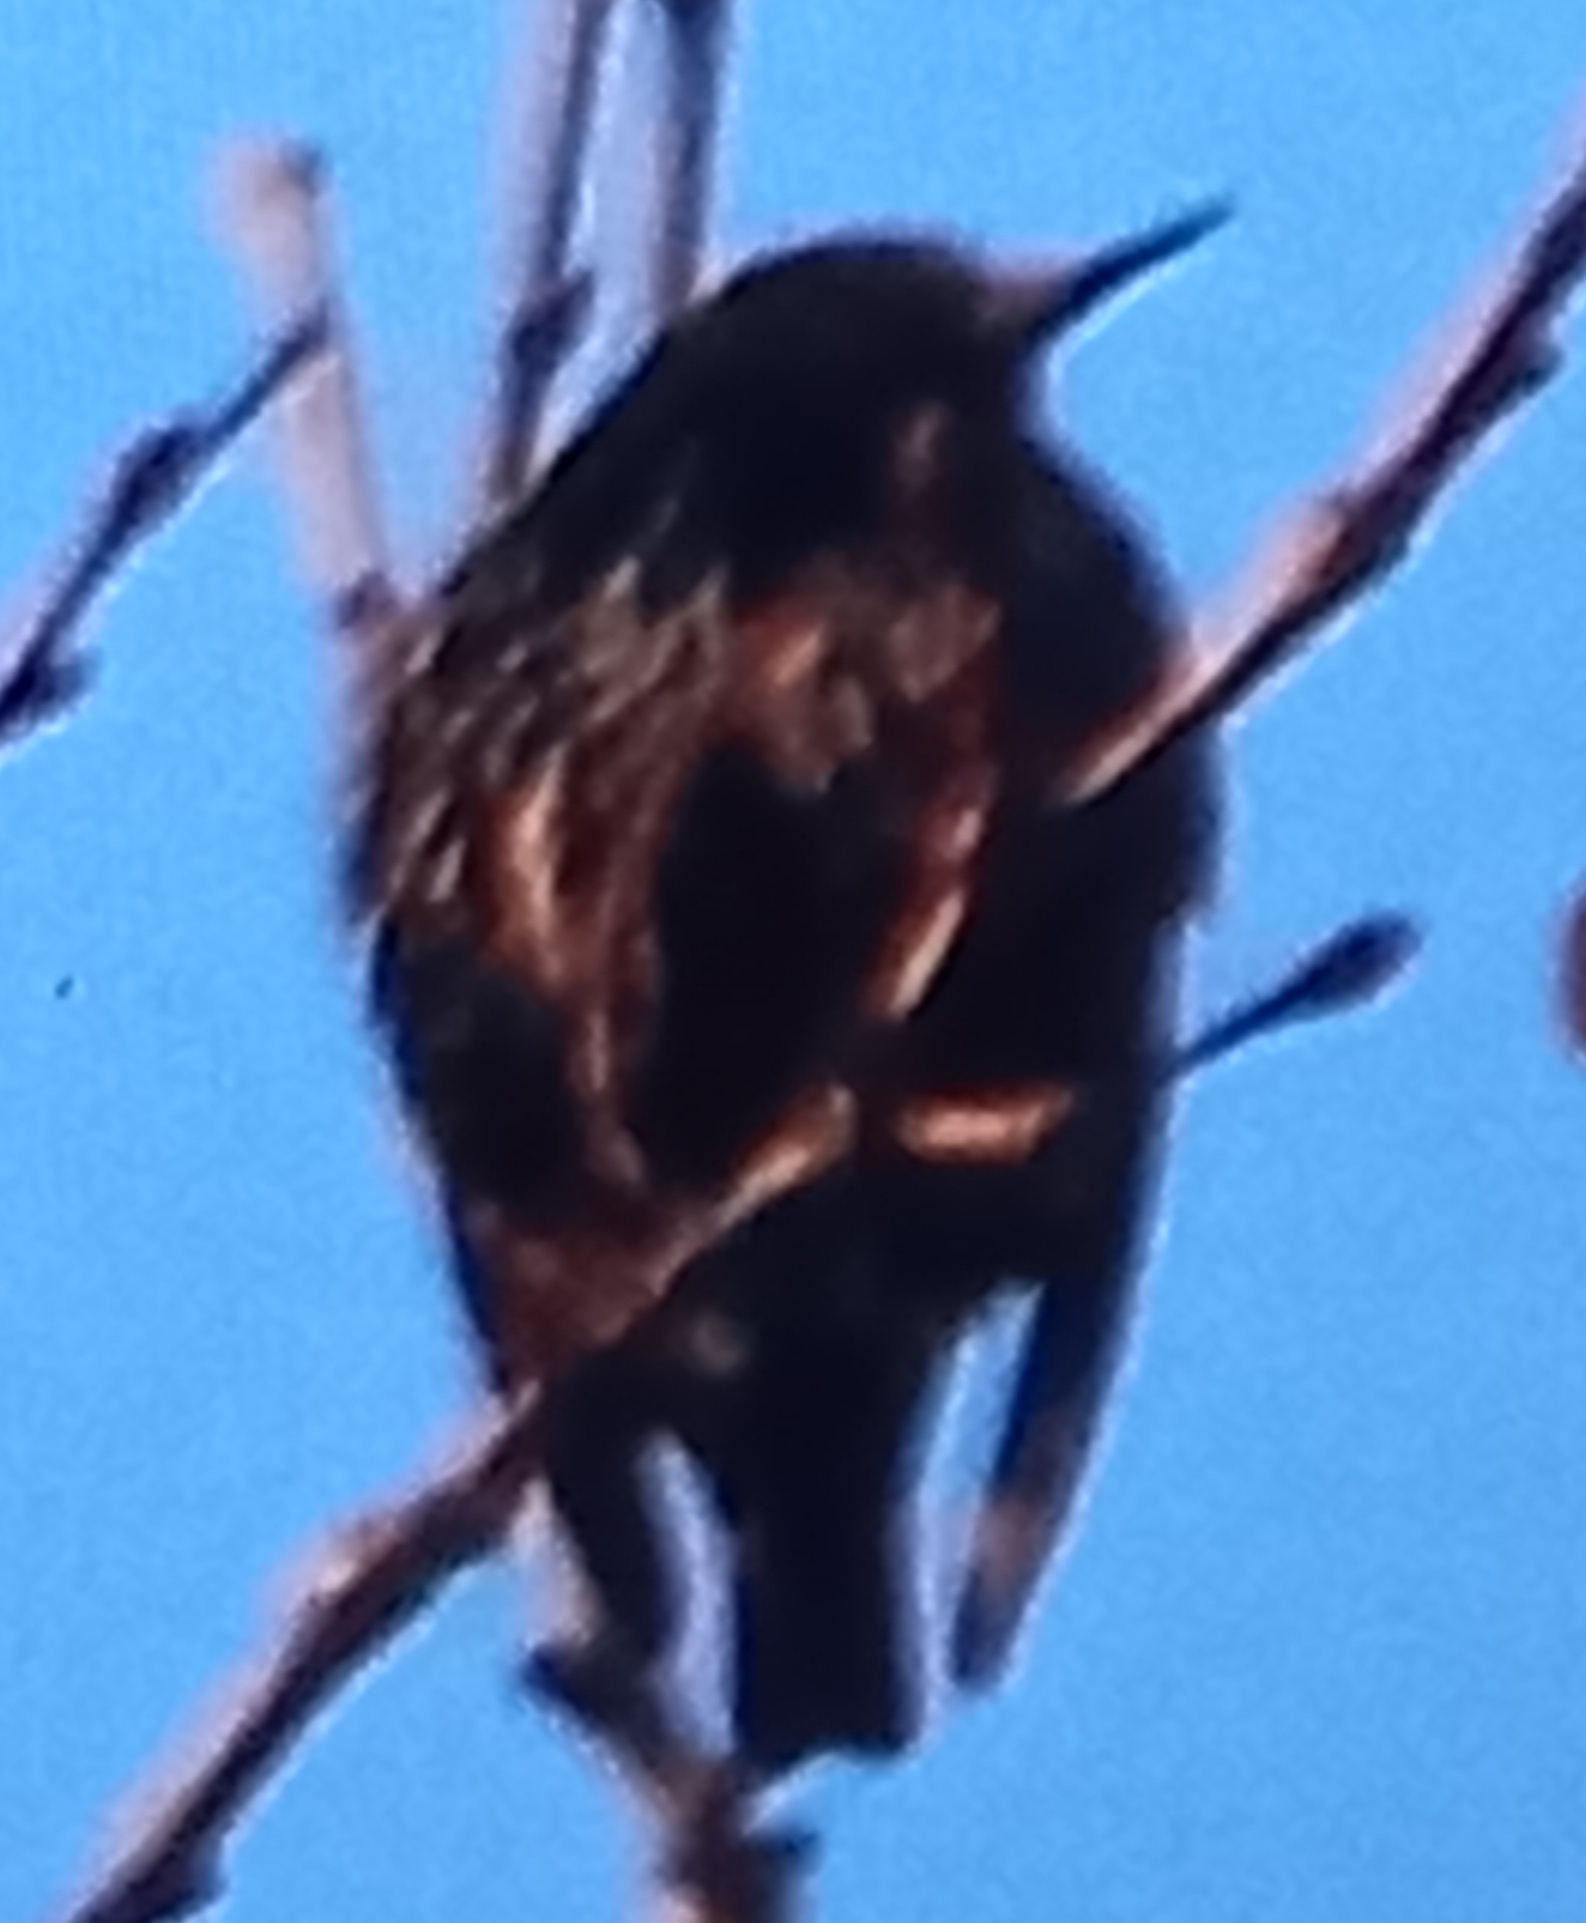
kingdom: Animalia
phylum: Chordata
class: Aves
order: Passeriformes
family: Sturnidae
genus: Sturnus
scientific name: Sturnus vulgaris
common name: Common starling
